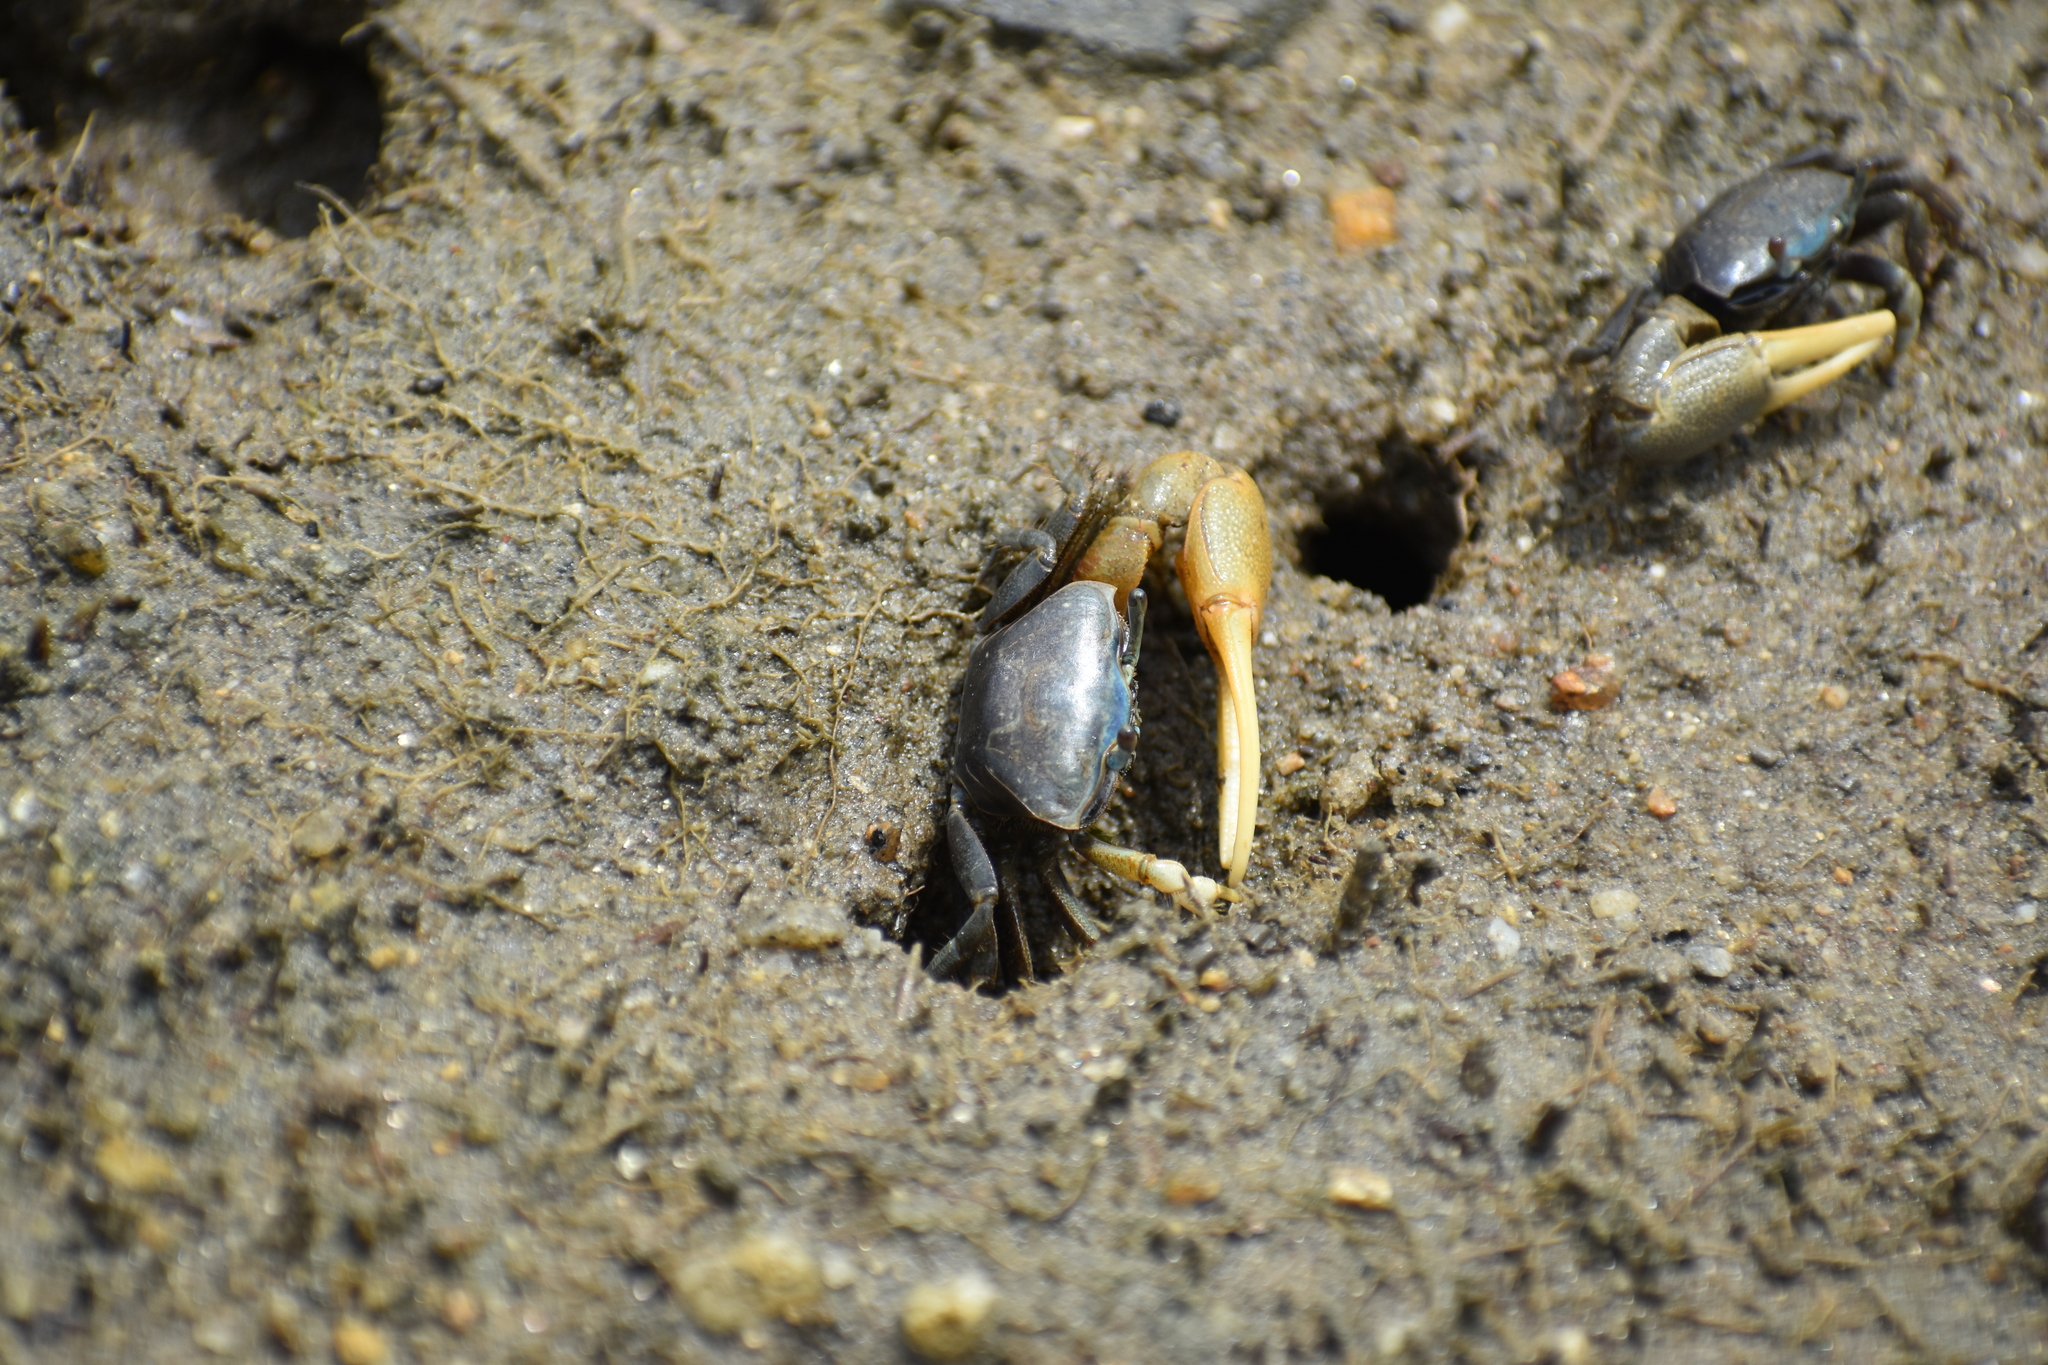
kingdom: Animalia
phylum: Arthropoda
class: Malacostraca
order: Decapoda
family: Ocypodidae
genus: Minuca
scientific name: Minuca pugnax
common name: Mud fiddler crab
